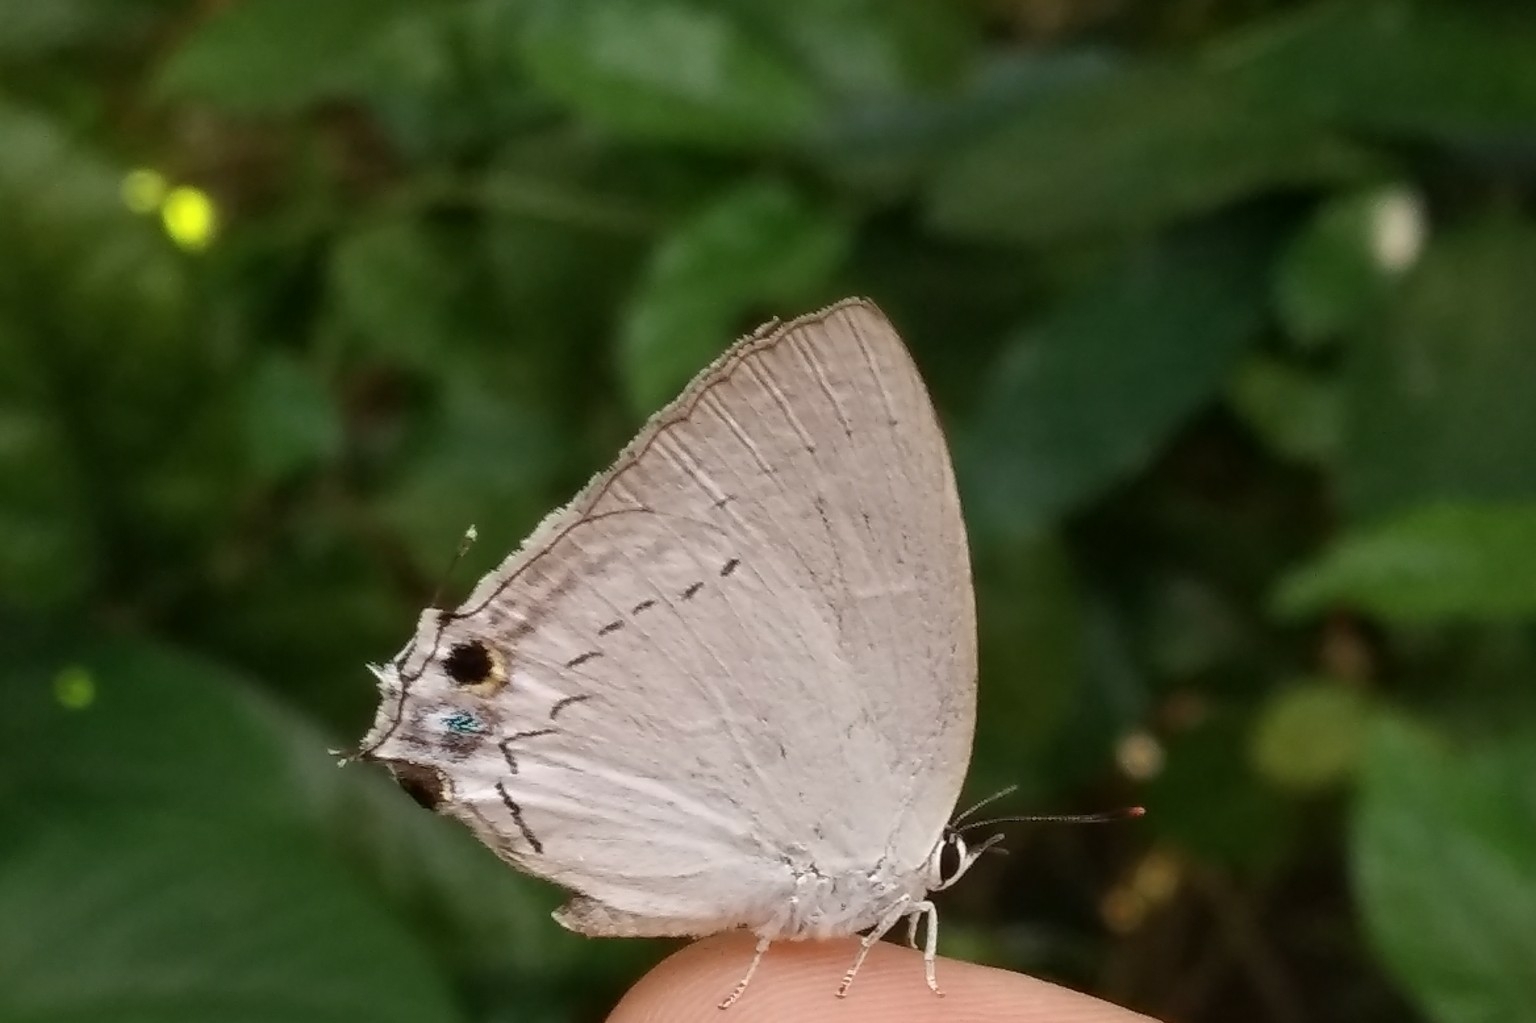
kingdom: Animalia
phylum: Arthropoda
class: Insecta
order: Lepidoptera
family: Lycaenidae
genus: Tajuria
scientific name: Tajuria cippus
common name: Peacock royal
